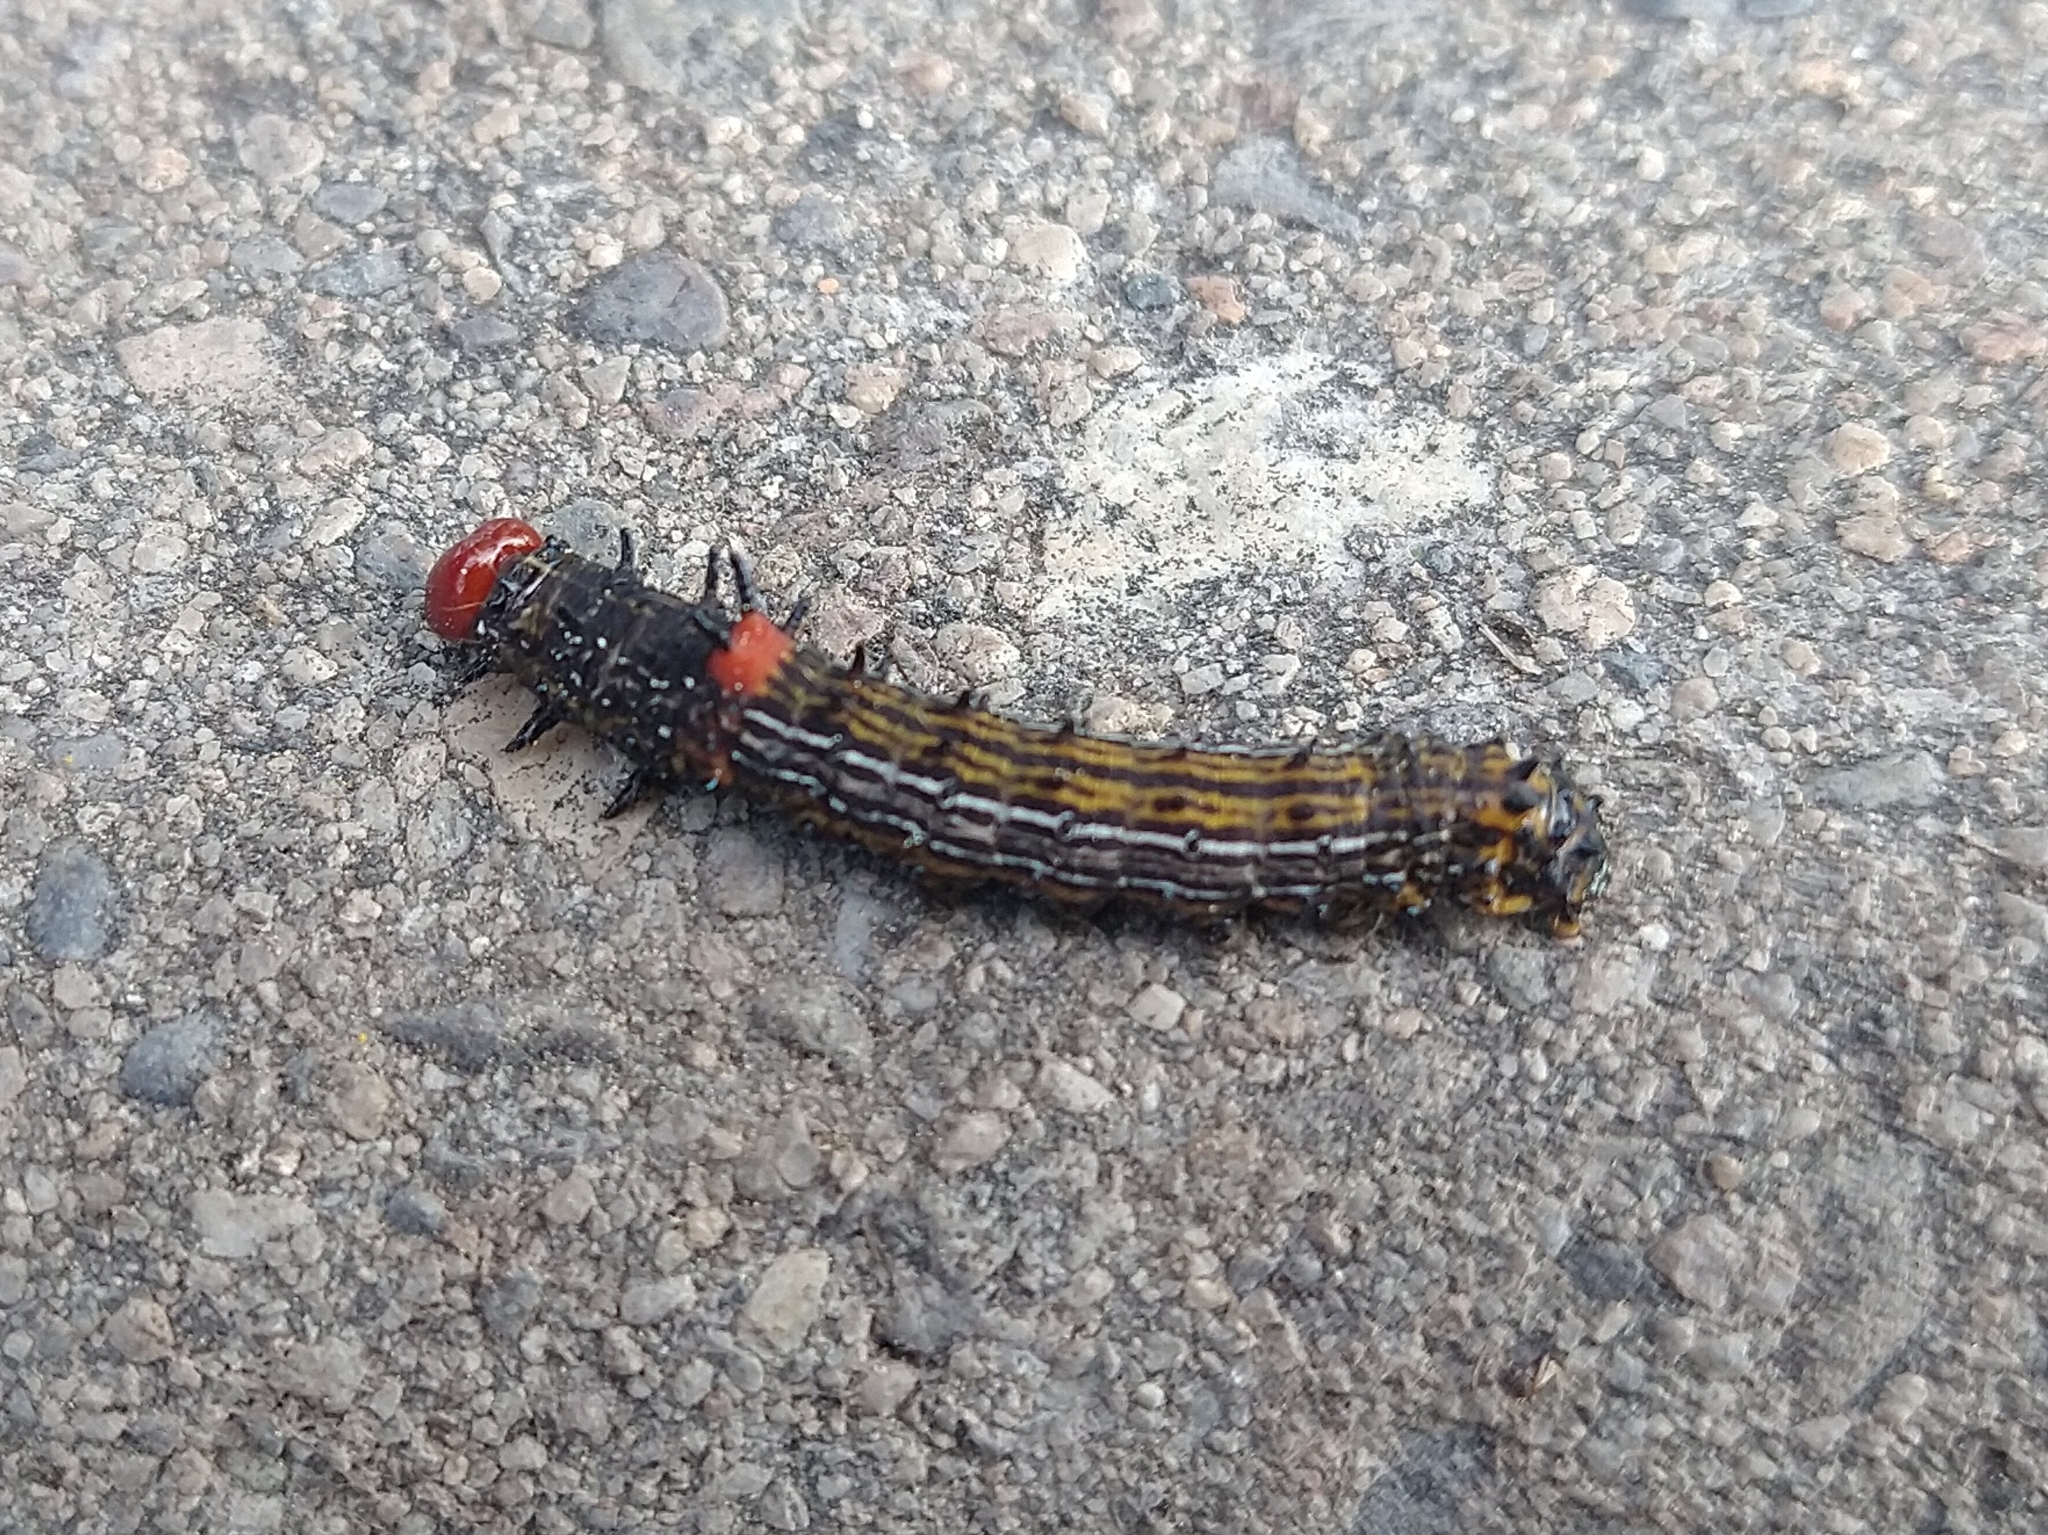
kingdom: Animalia
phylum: Arthropoda
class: Insecta
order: Lepidoptera
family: Notodontidae
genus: Schizura
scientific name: Schizura
